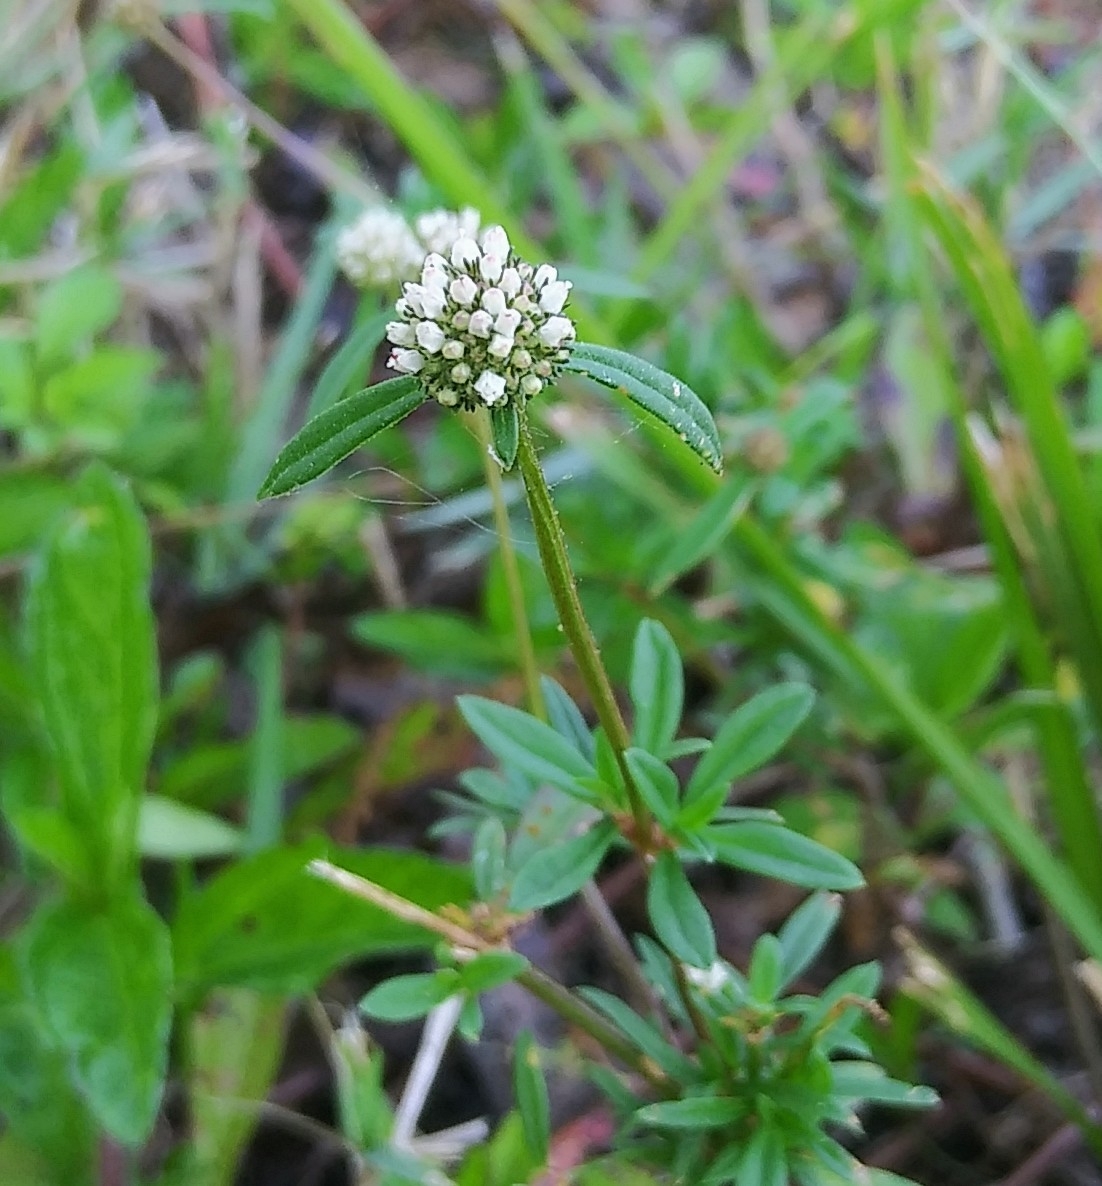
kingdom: Plantae
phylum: Tracheophyta
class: Magnoliopsida
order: Gentianales
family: Rubiaceae
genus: Spermacoce
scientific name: Spermacoce verticillata
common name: Shrubby false buttonweed
